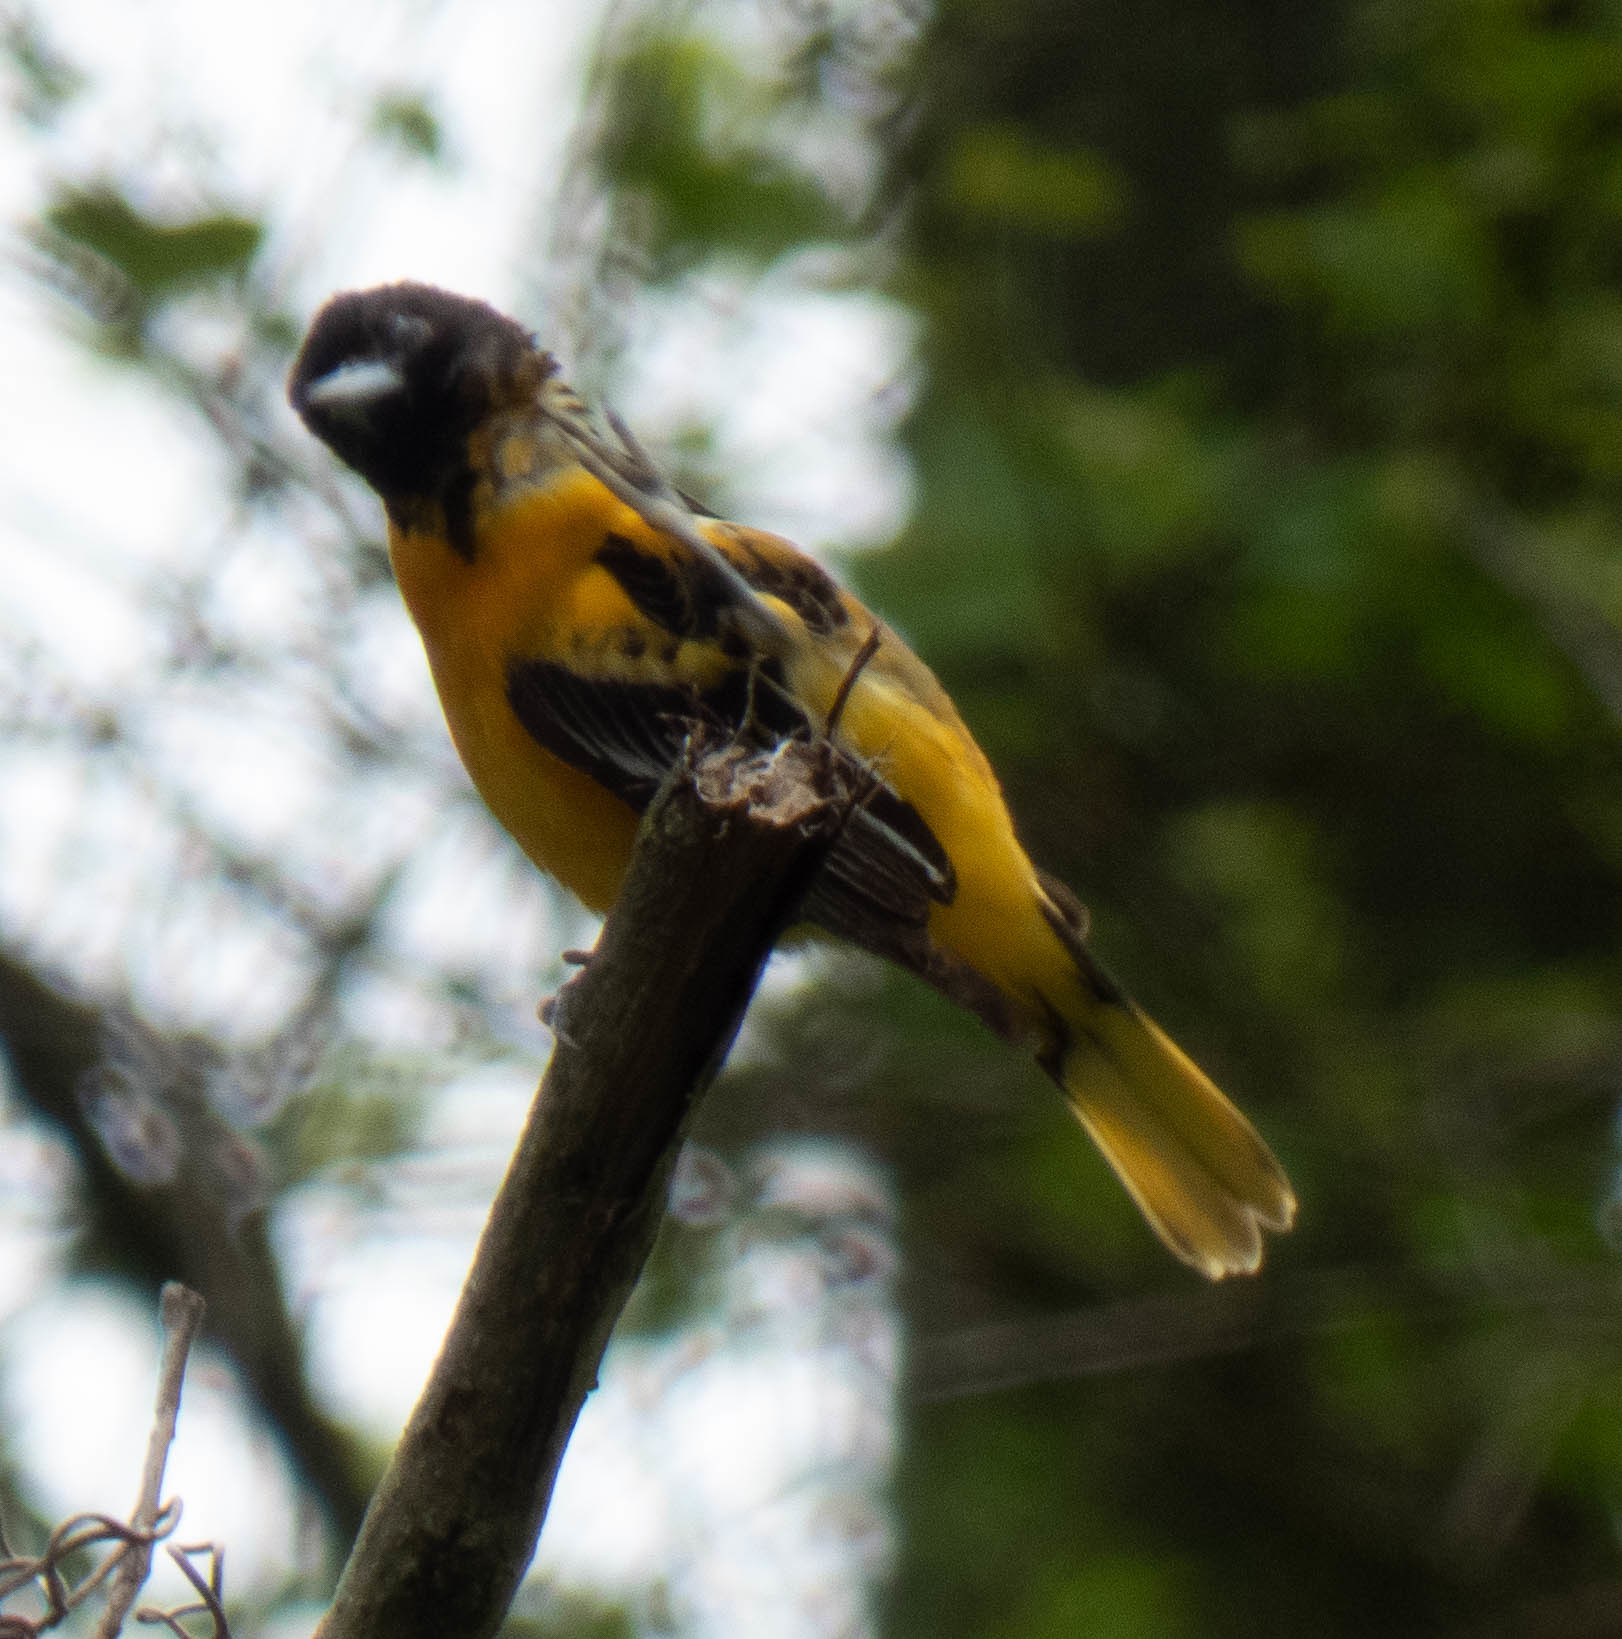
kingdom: Animalia
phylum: Chordata
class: Aves
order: Passeriformes
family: Icteridae
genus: Icterus
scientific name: Icterus galbula
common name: Baltimore oriole
